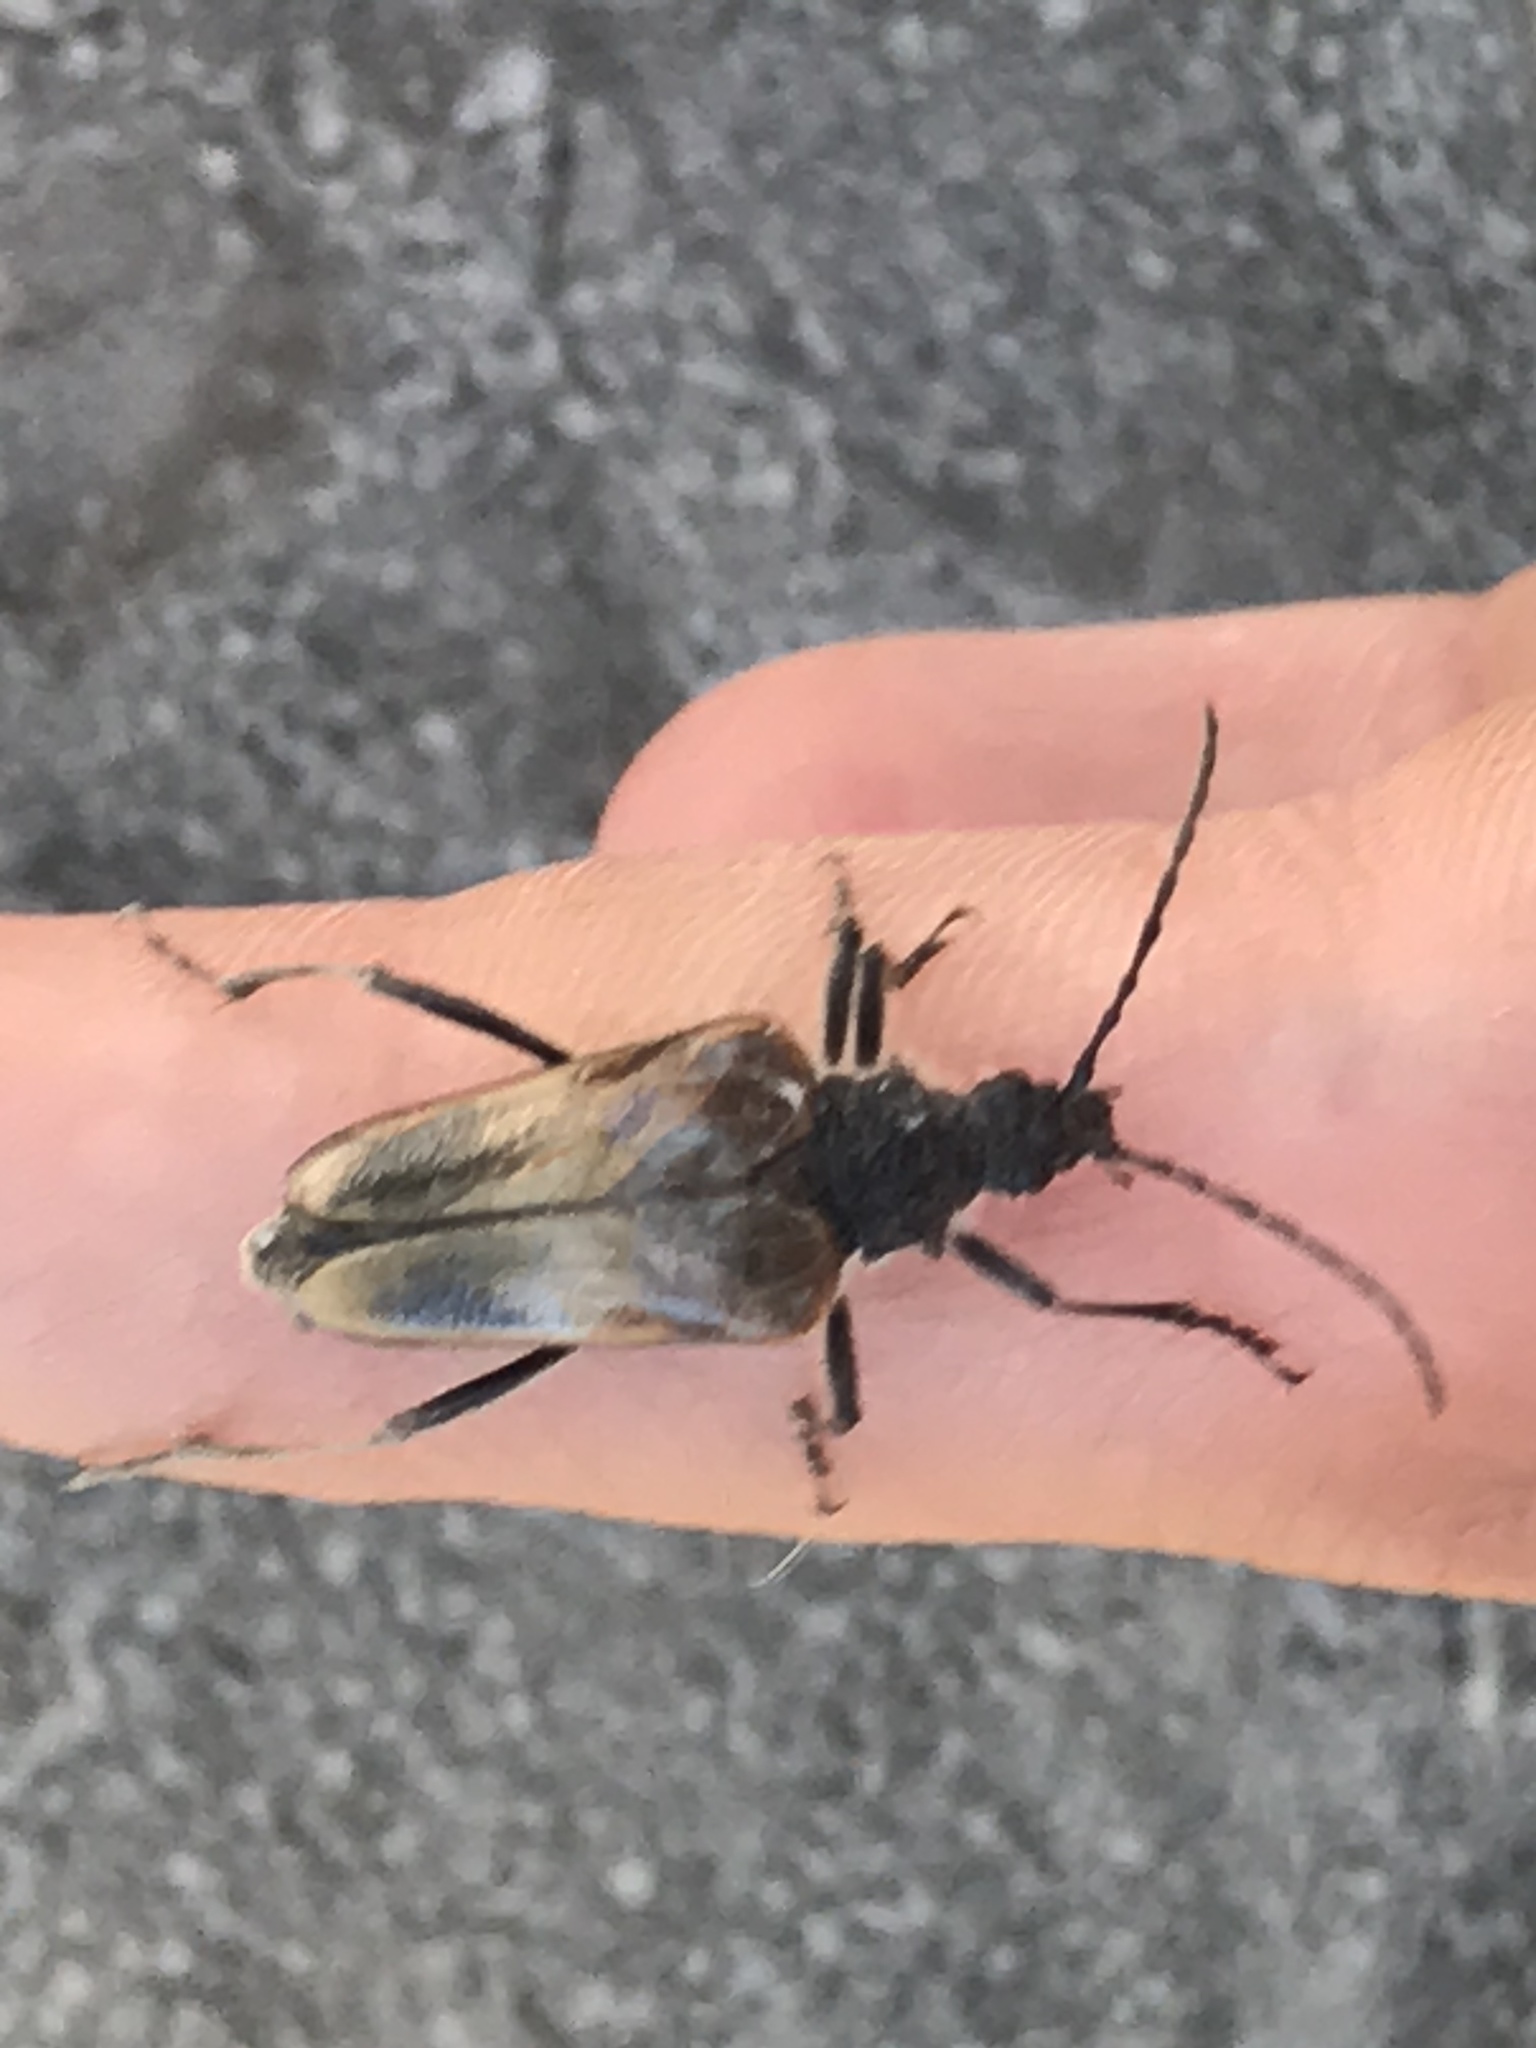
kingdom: Animalia
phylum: Arthropoda
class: Insecta
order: Coleoptera
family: Cerambycidae
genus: Pachyta
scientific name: Pachyta lamed
